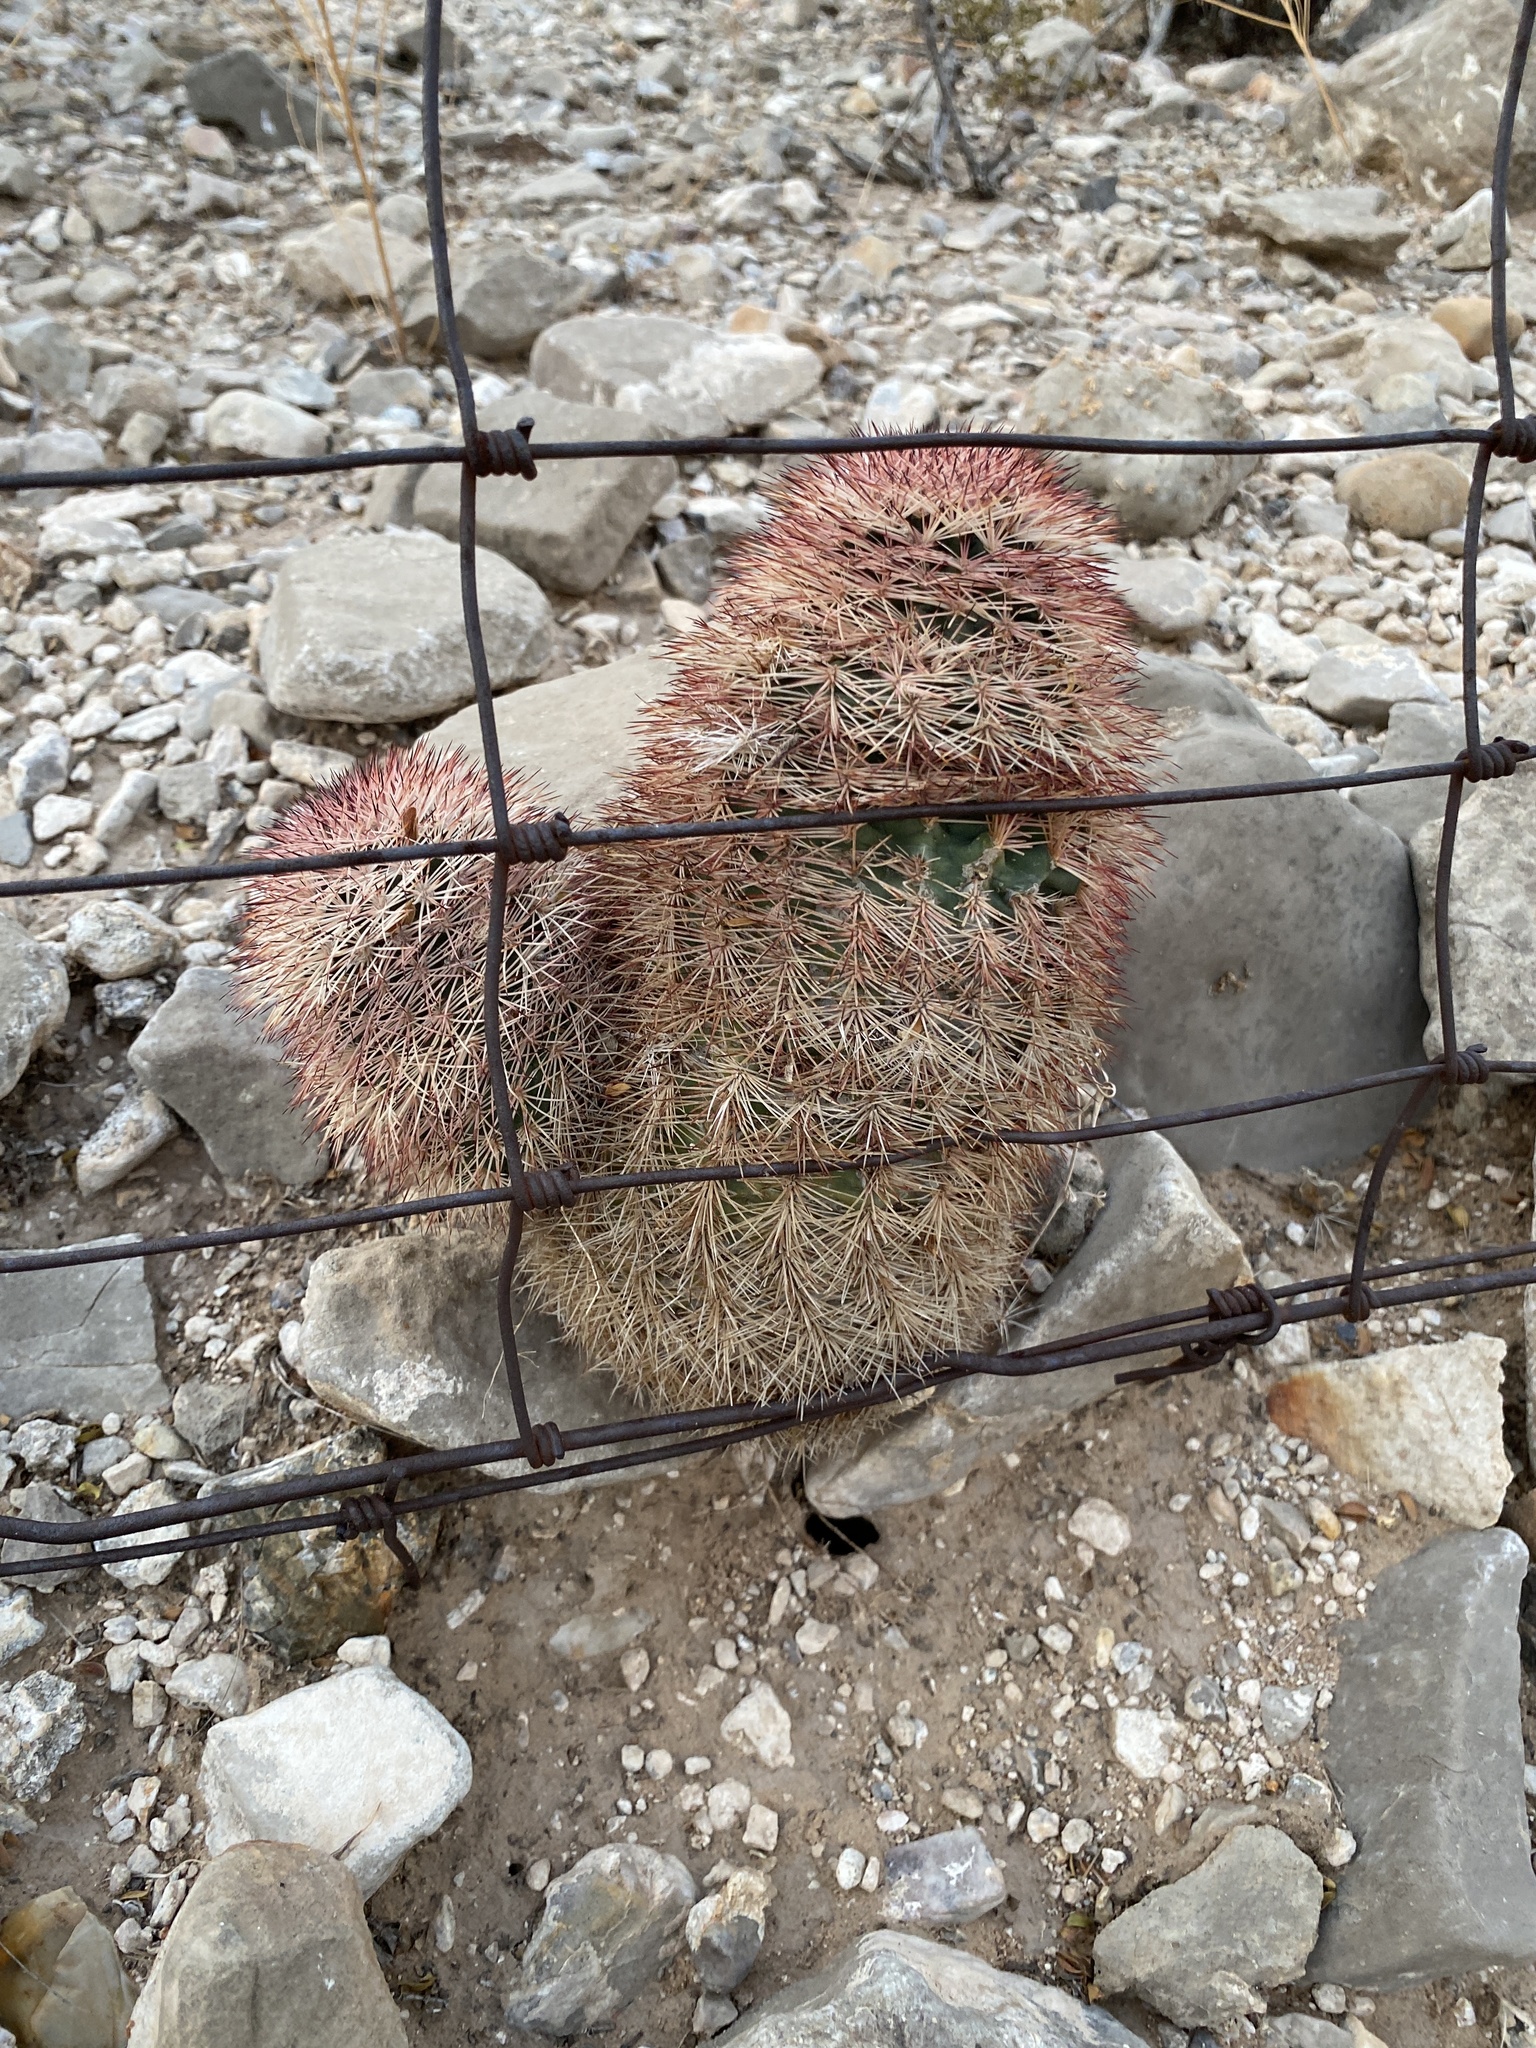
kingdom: Plantae
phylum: Tracheophyta
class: Magnoliopsida
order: Caryophyllales
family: Cactaceae
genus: Echinocereus
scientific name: Echinocereus dasyacanthus
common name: Spiny hedgehog cactus
